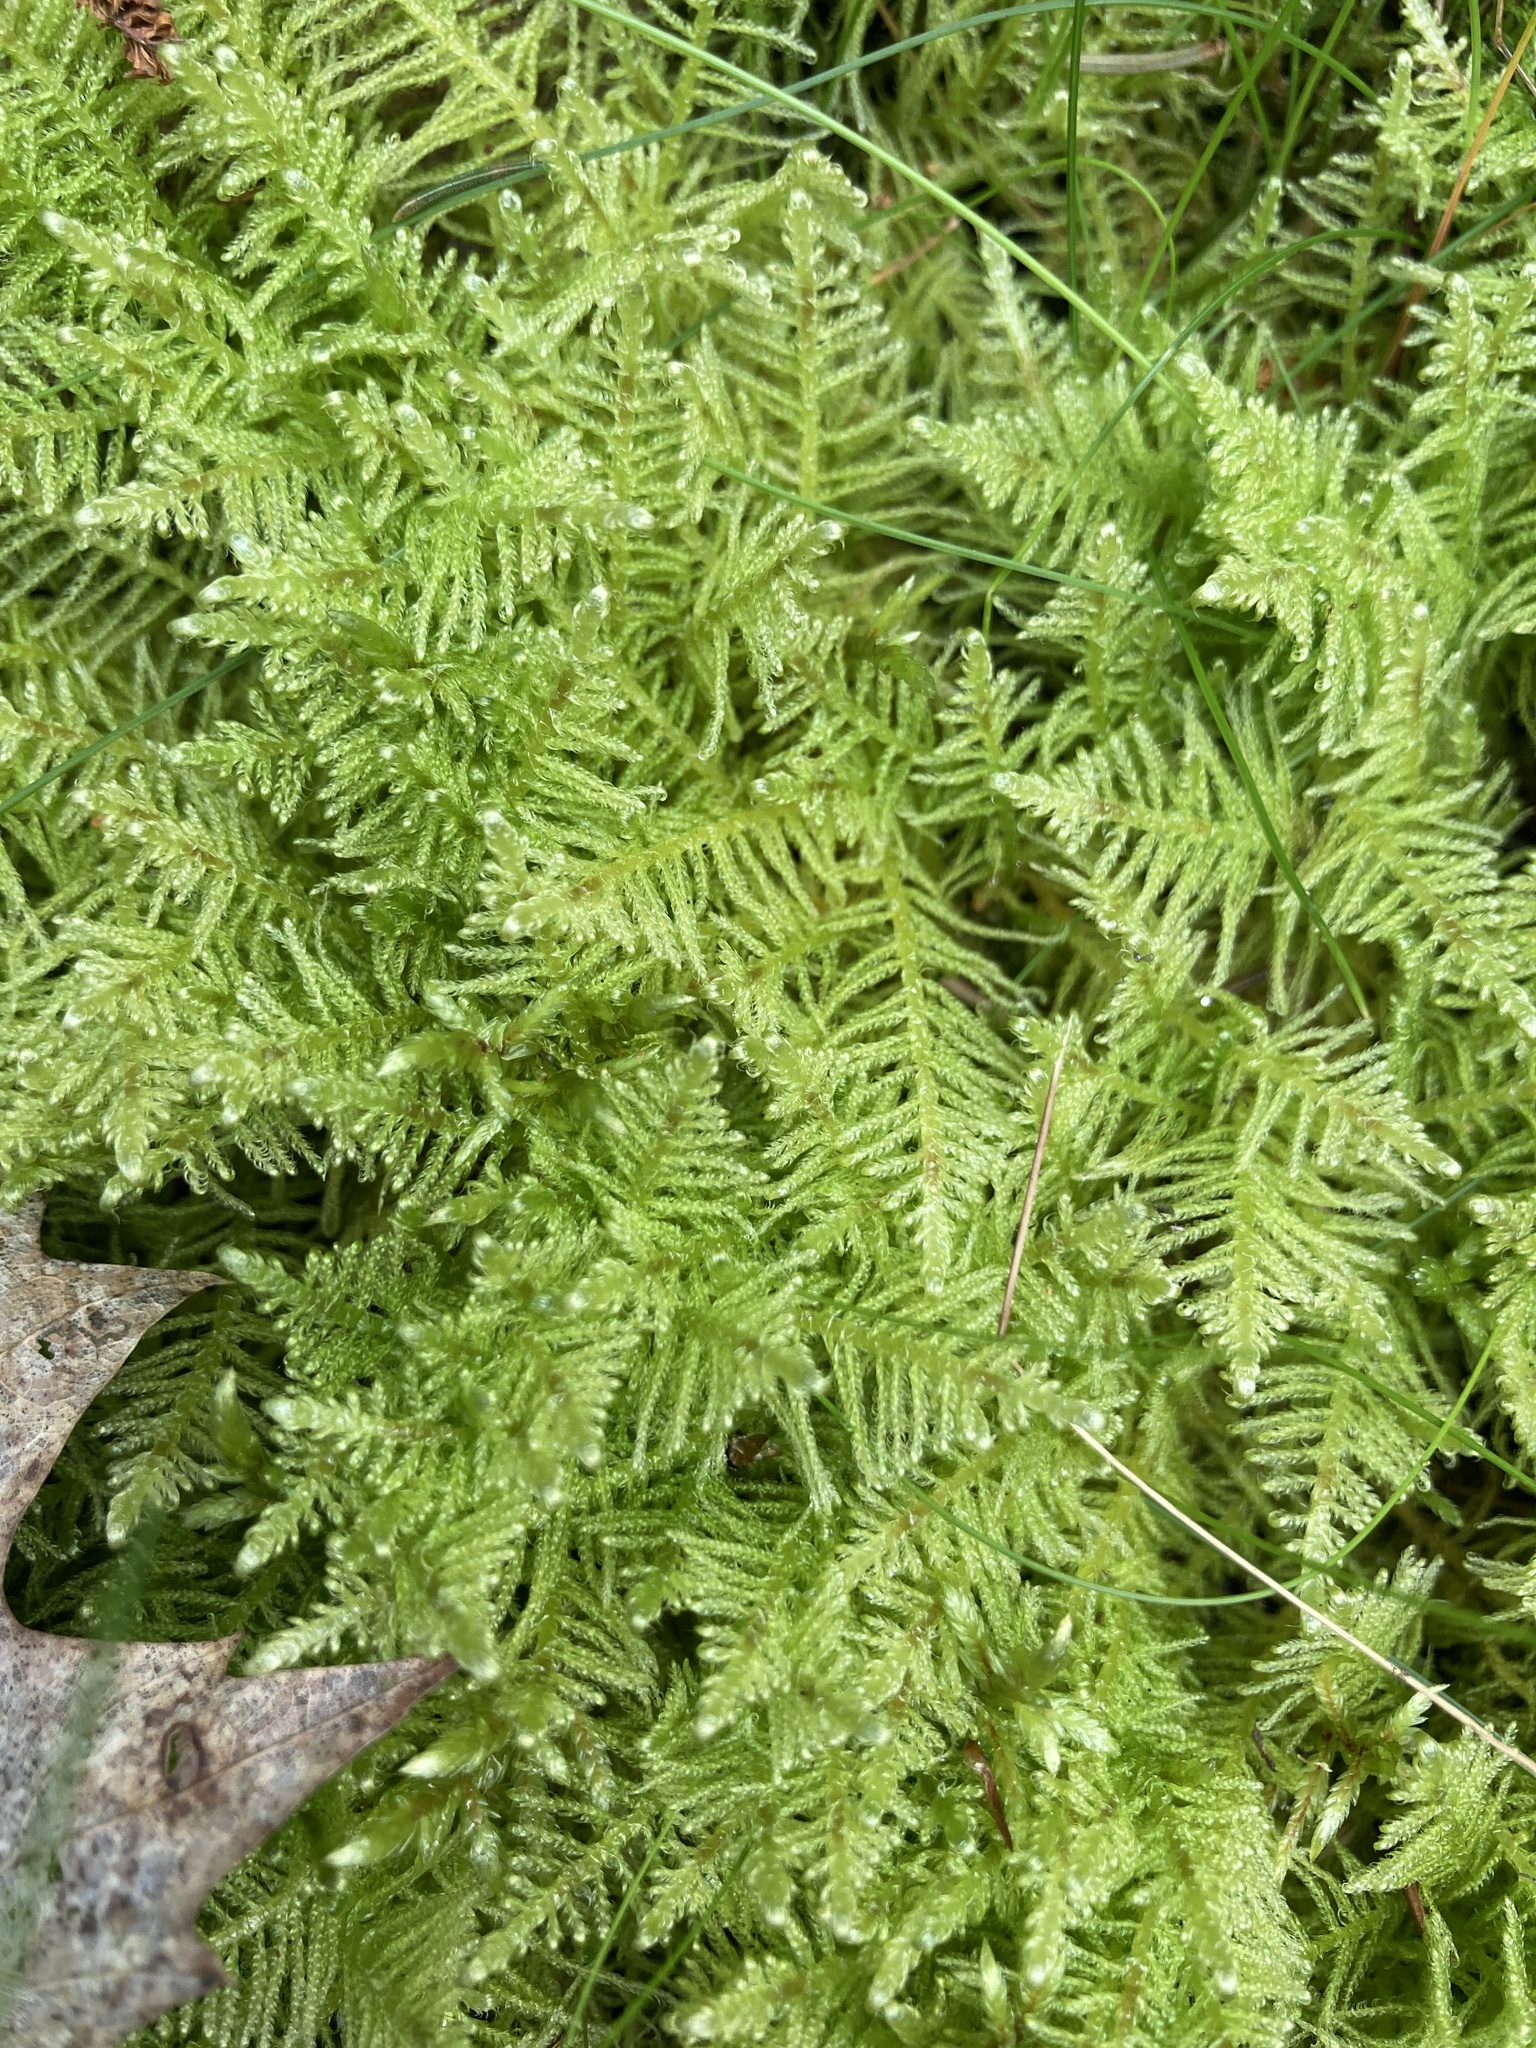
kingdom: Plantae
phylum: Bryophyta
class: Bryopsida
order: Hypnales
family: Pylaisiaceae
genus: Ptilium
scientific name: Ptilium crista-castrensis
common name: Knight's plume moss
